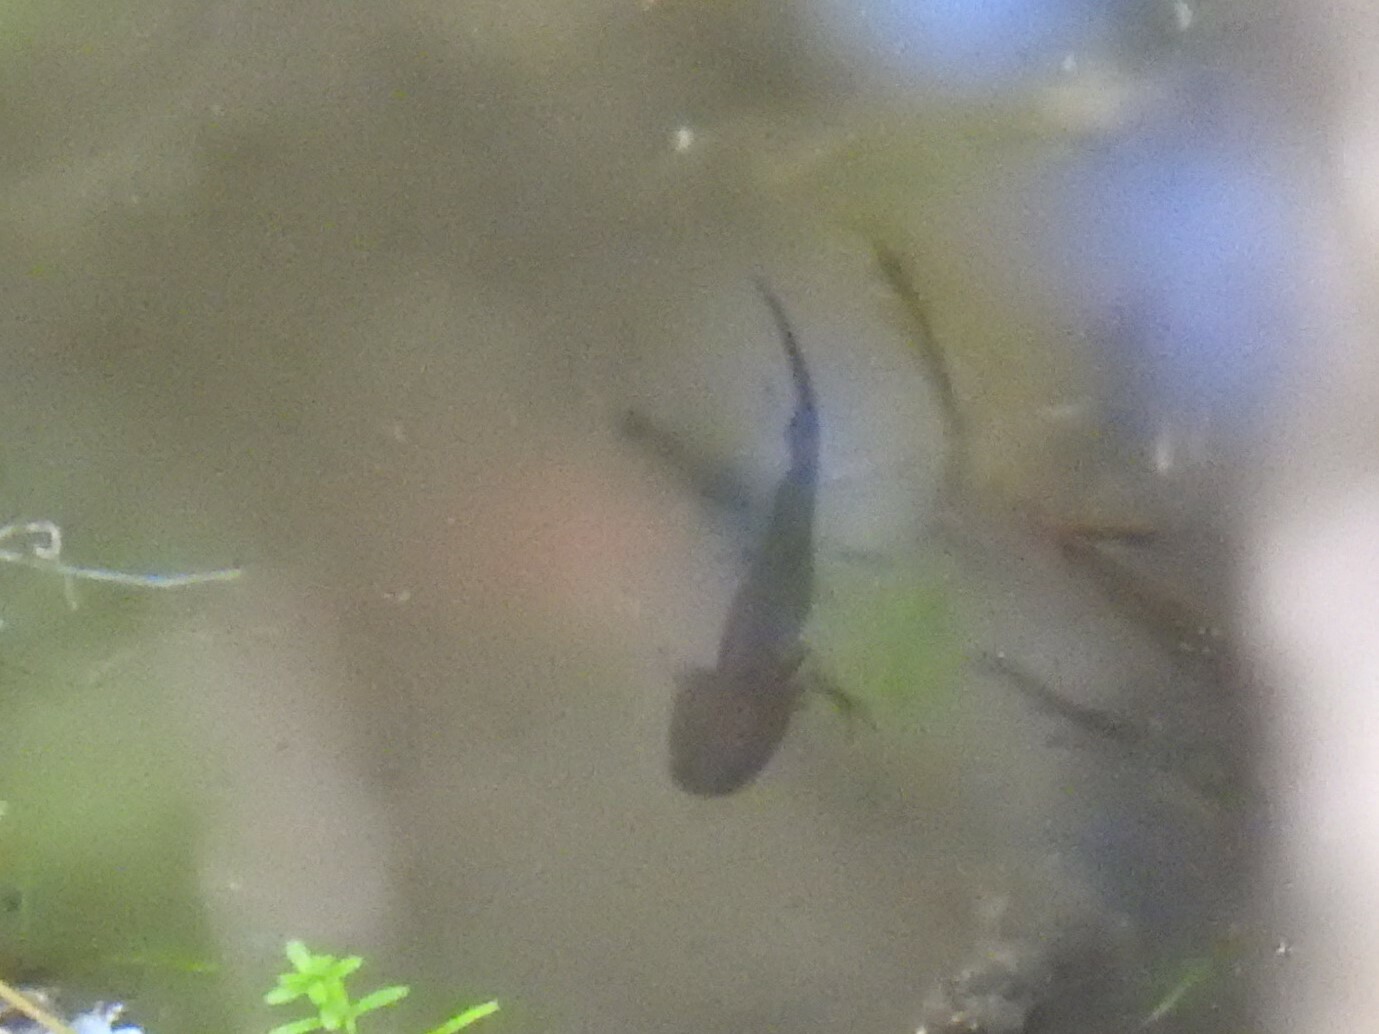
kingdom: Animalia
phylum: Chordata
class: Amphibia
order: Caudata
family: Ambystomatidae
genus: Ambystoma
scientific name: Ambystoma macrodactylum
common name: Long-toed salamander
